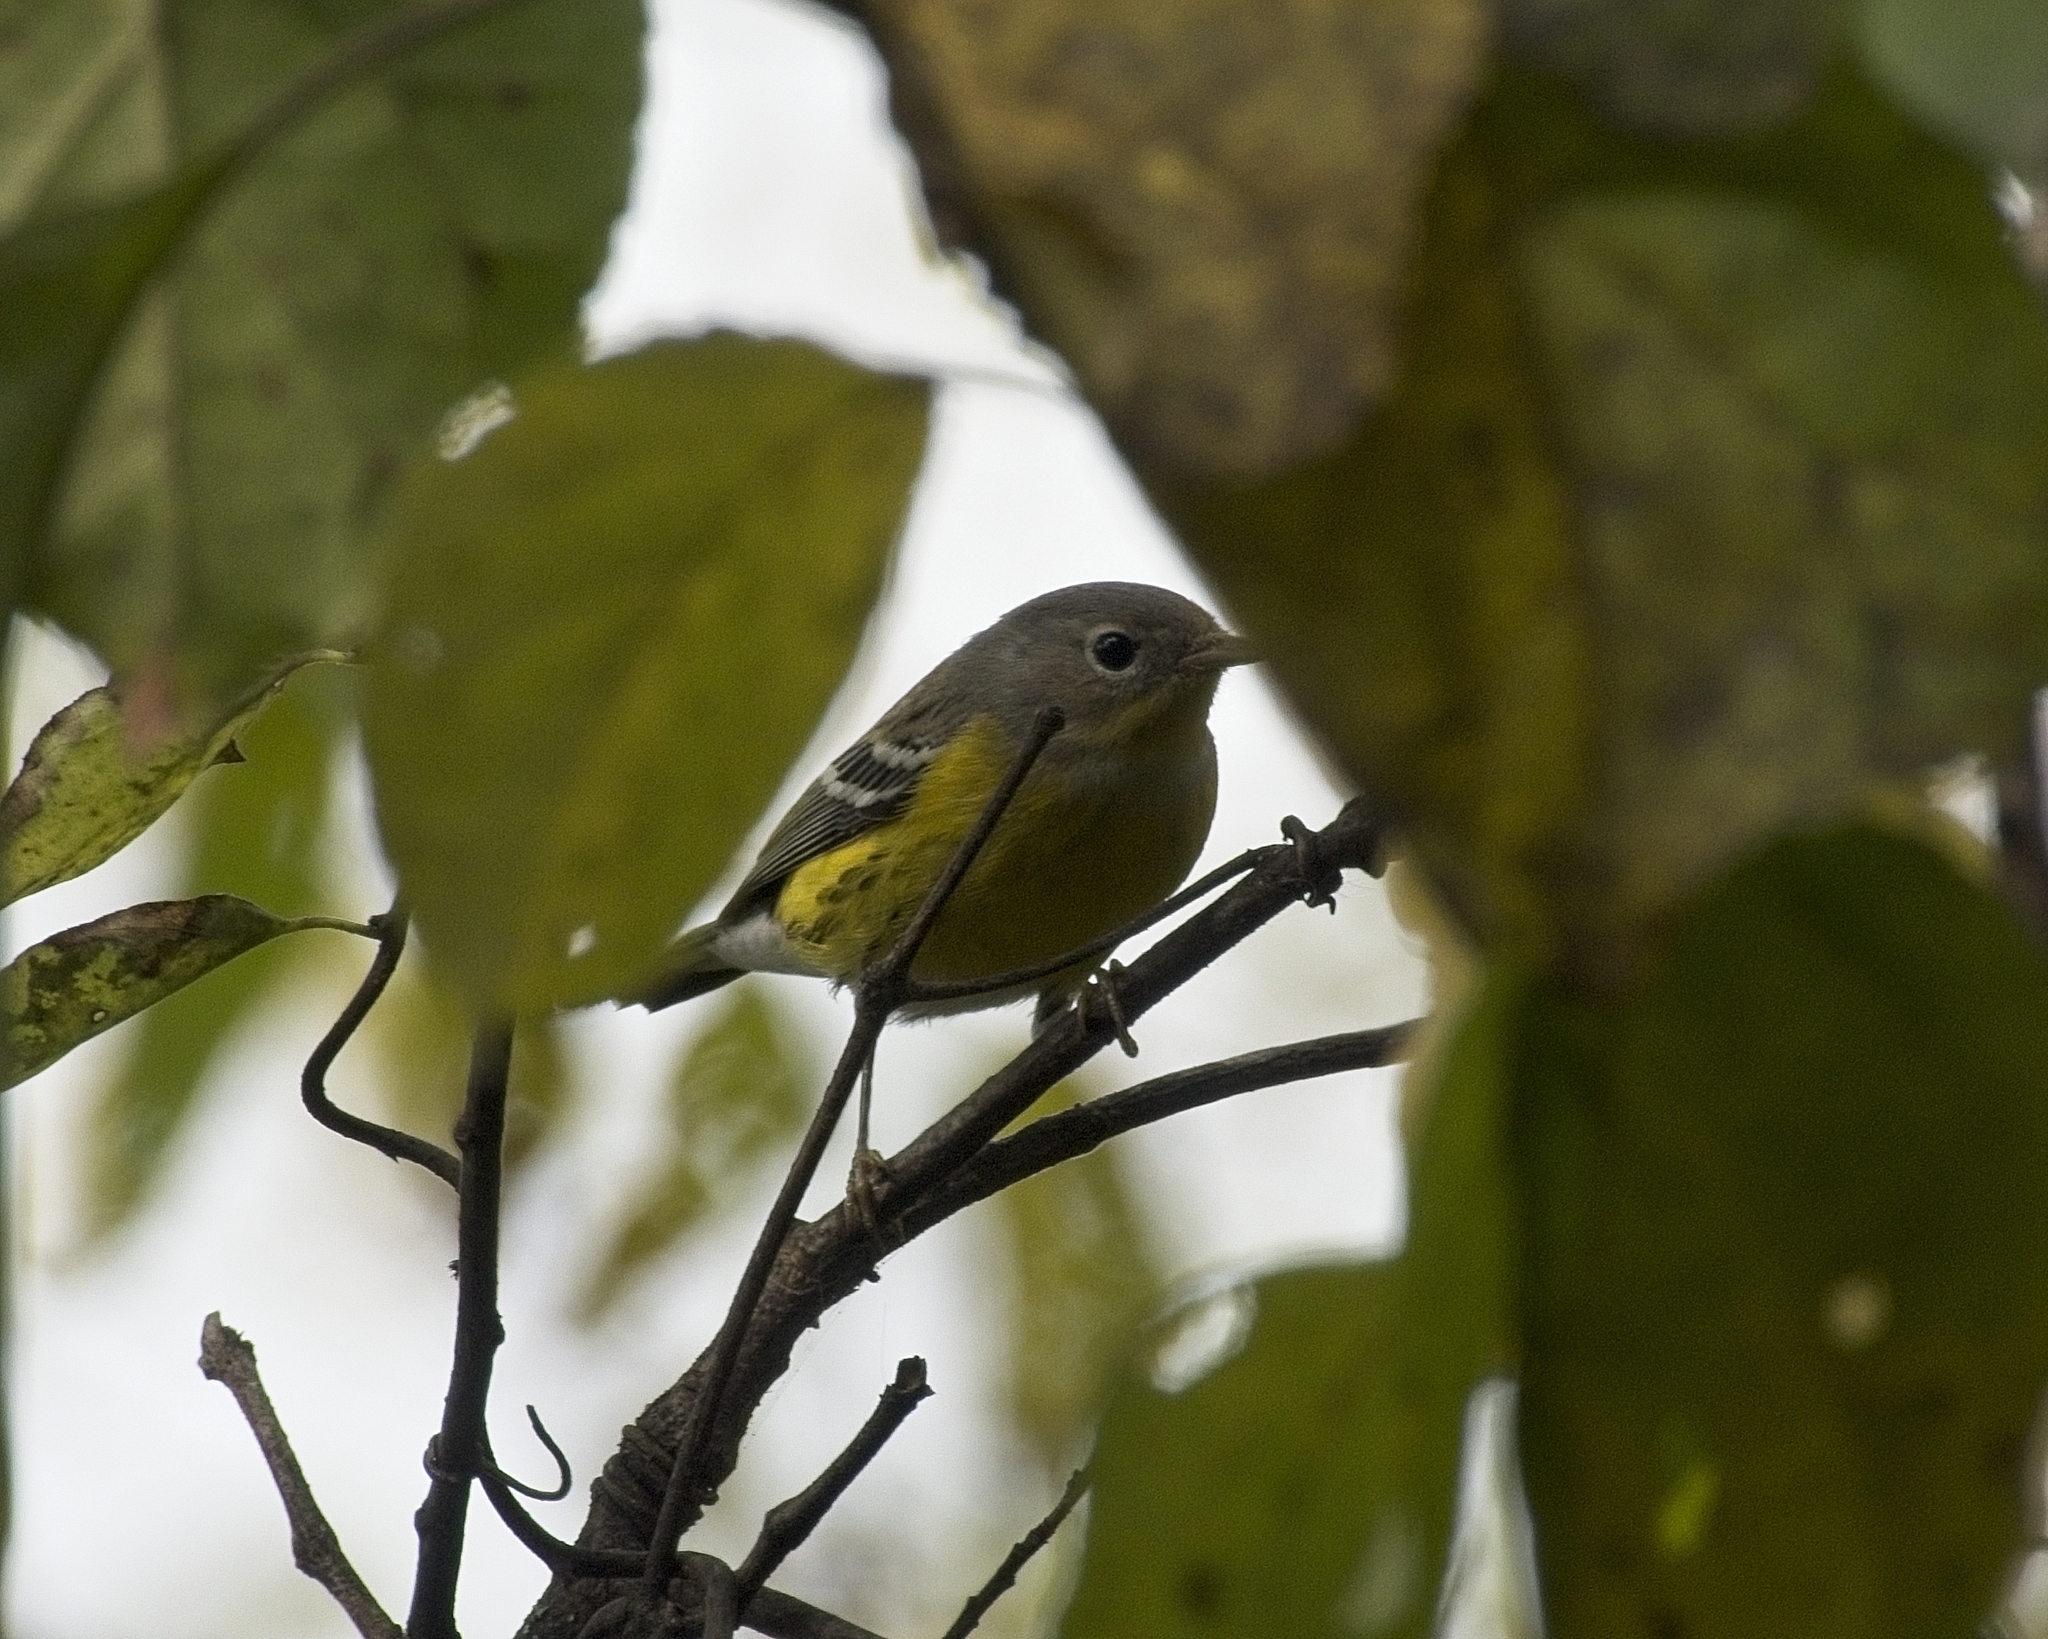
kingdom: Animalia
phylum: Chordata
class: Aves
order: Passeriformes
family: Parulidae
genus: Setophaga
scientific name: Setophaga magnolia
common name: Magnolia warbler
